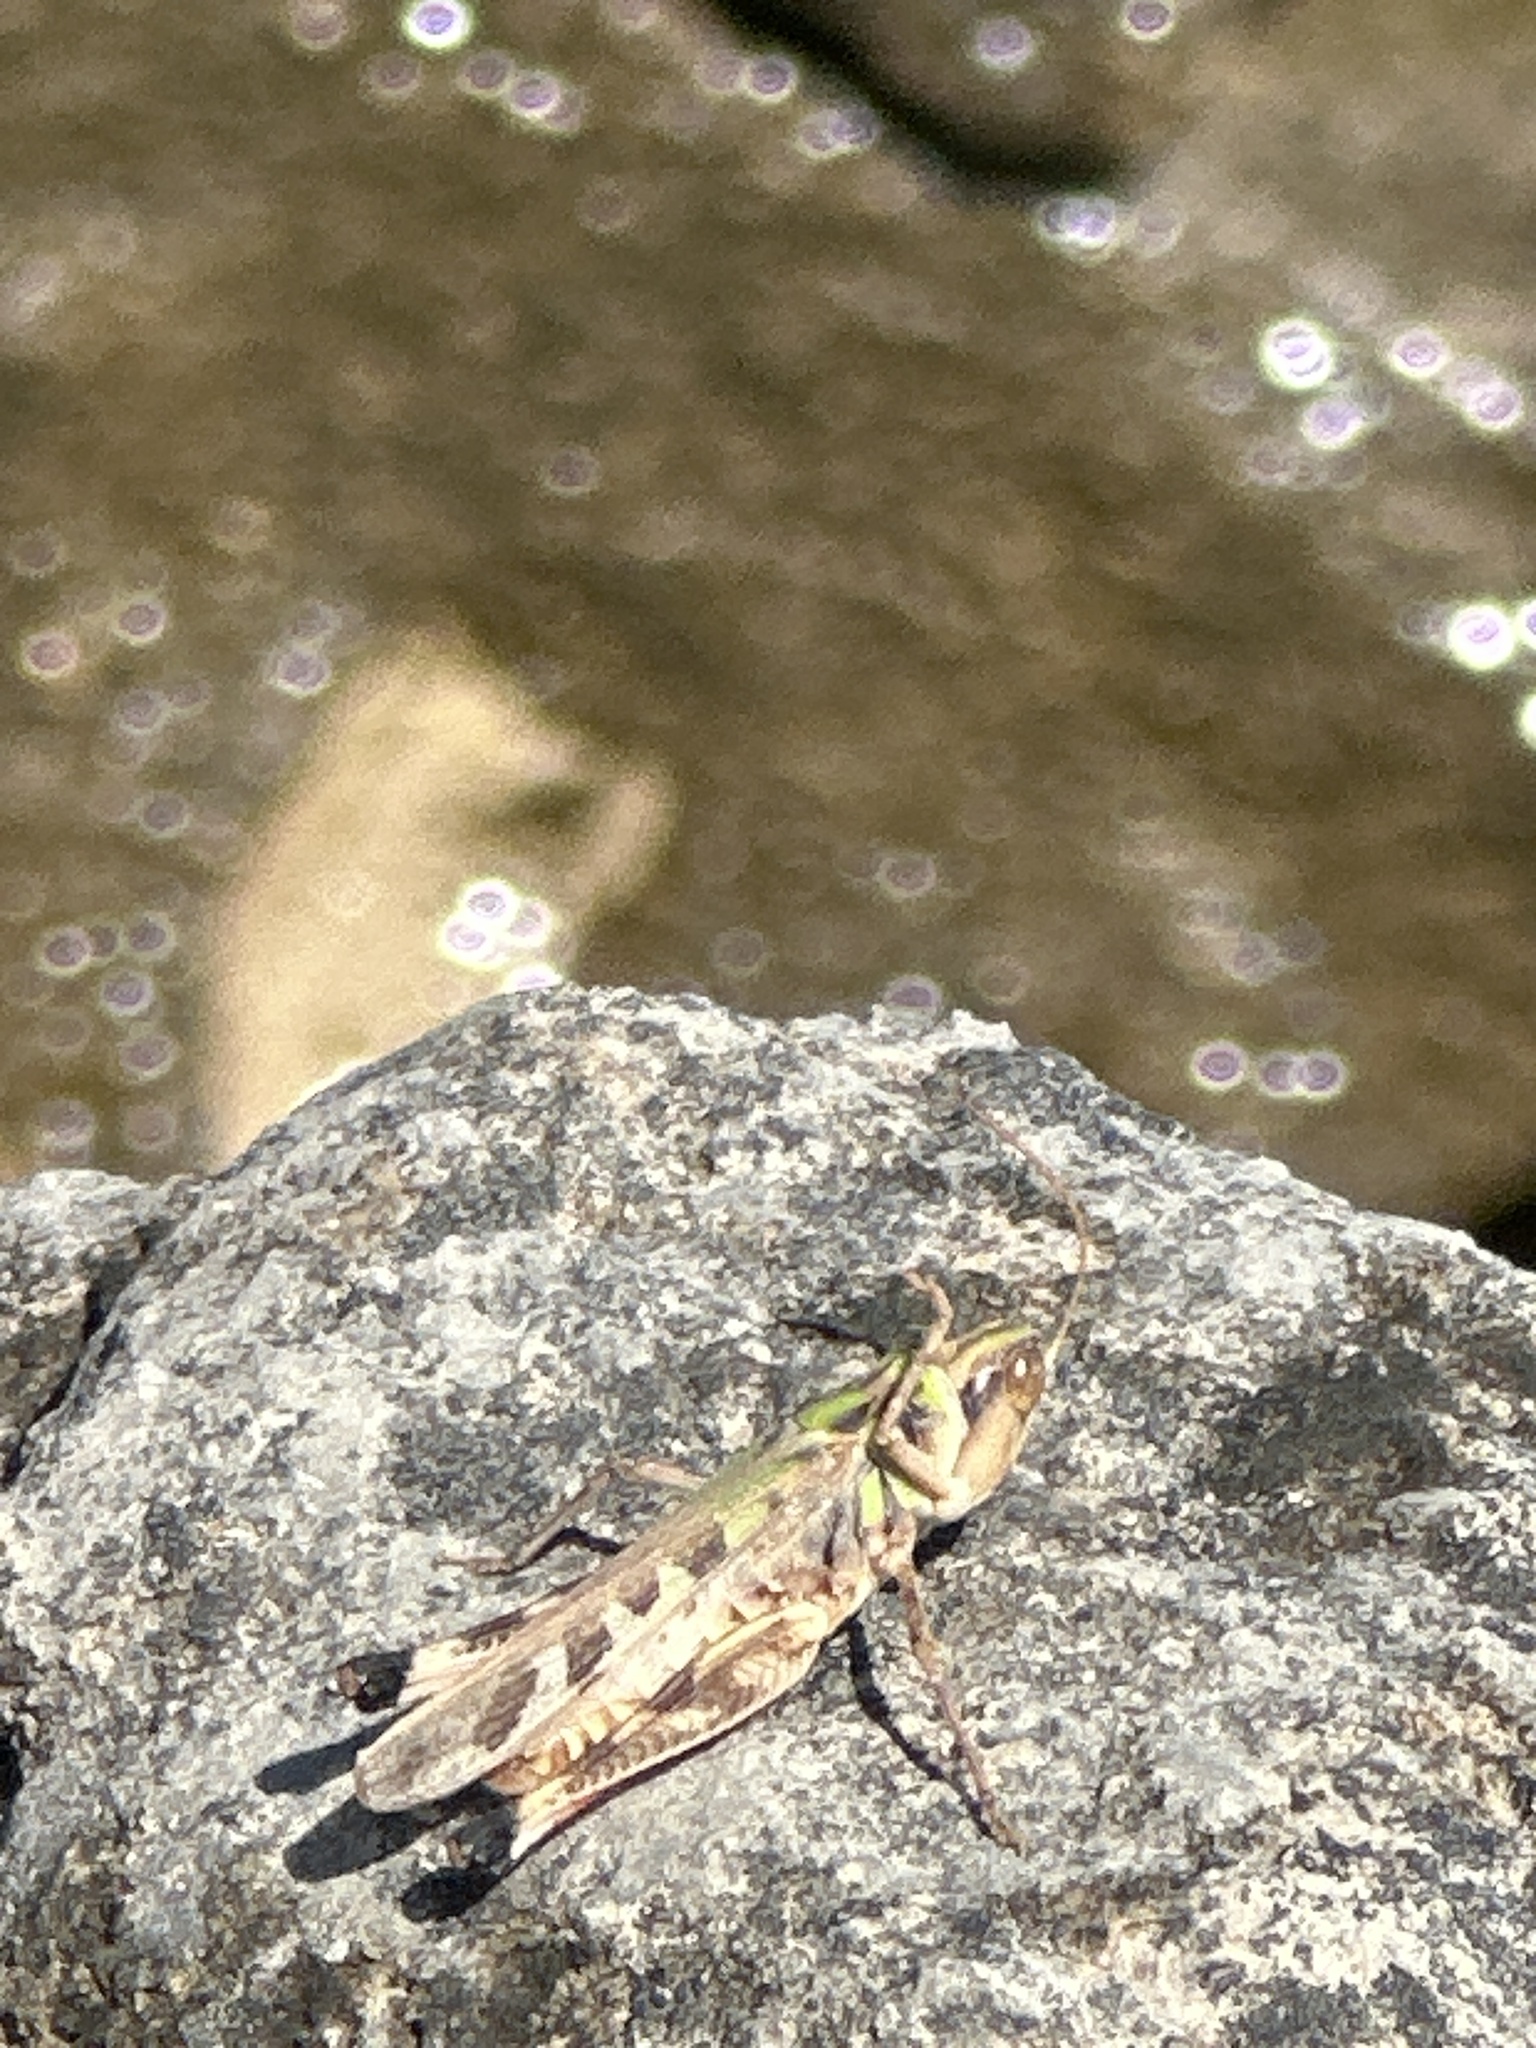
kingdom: Animalia
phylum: Arthropoda
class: Insecta
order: Orthoptera
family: Acrididae
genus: Syrbula
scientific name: Syrbula admirabilis
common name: Handsome grasshopper
